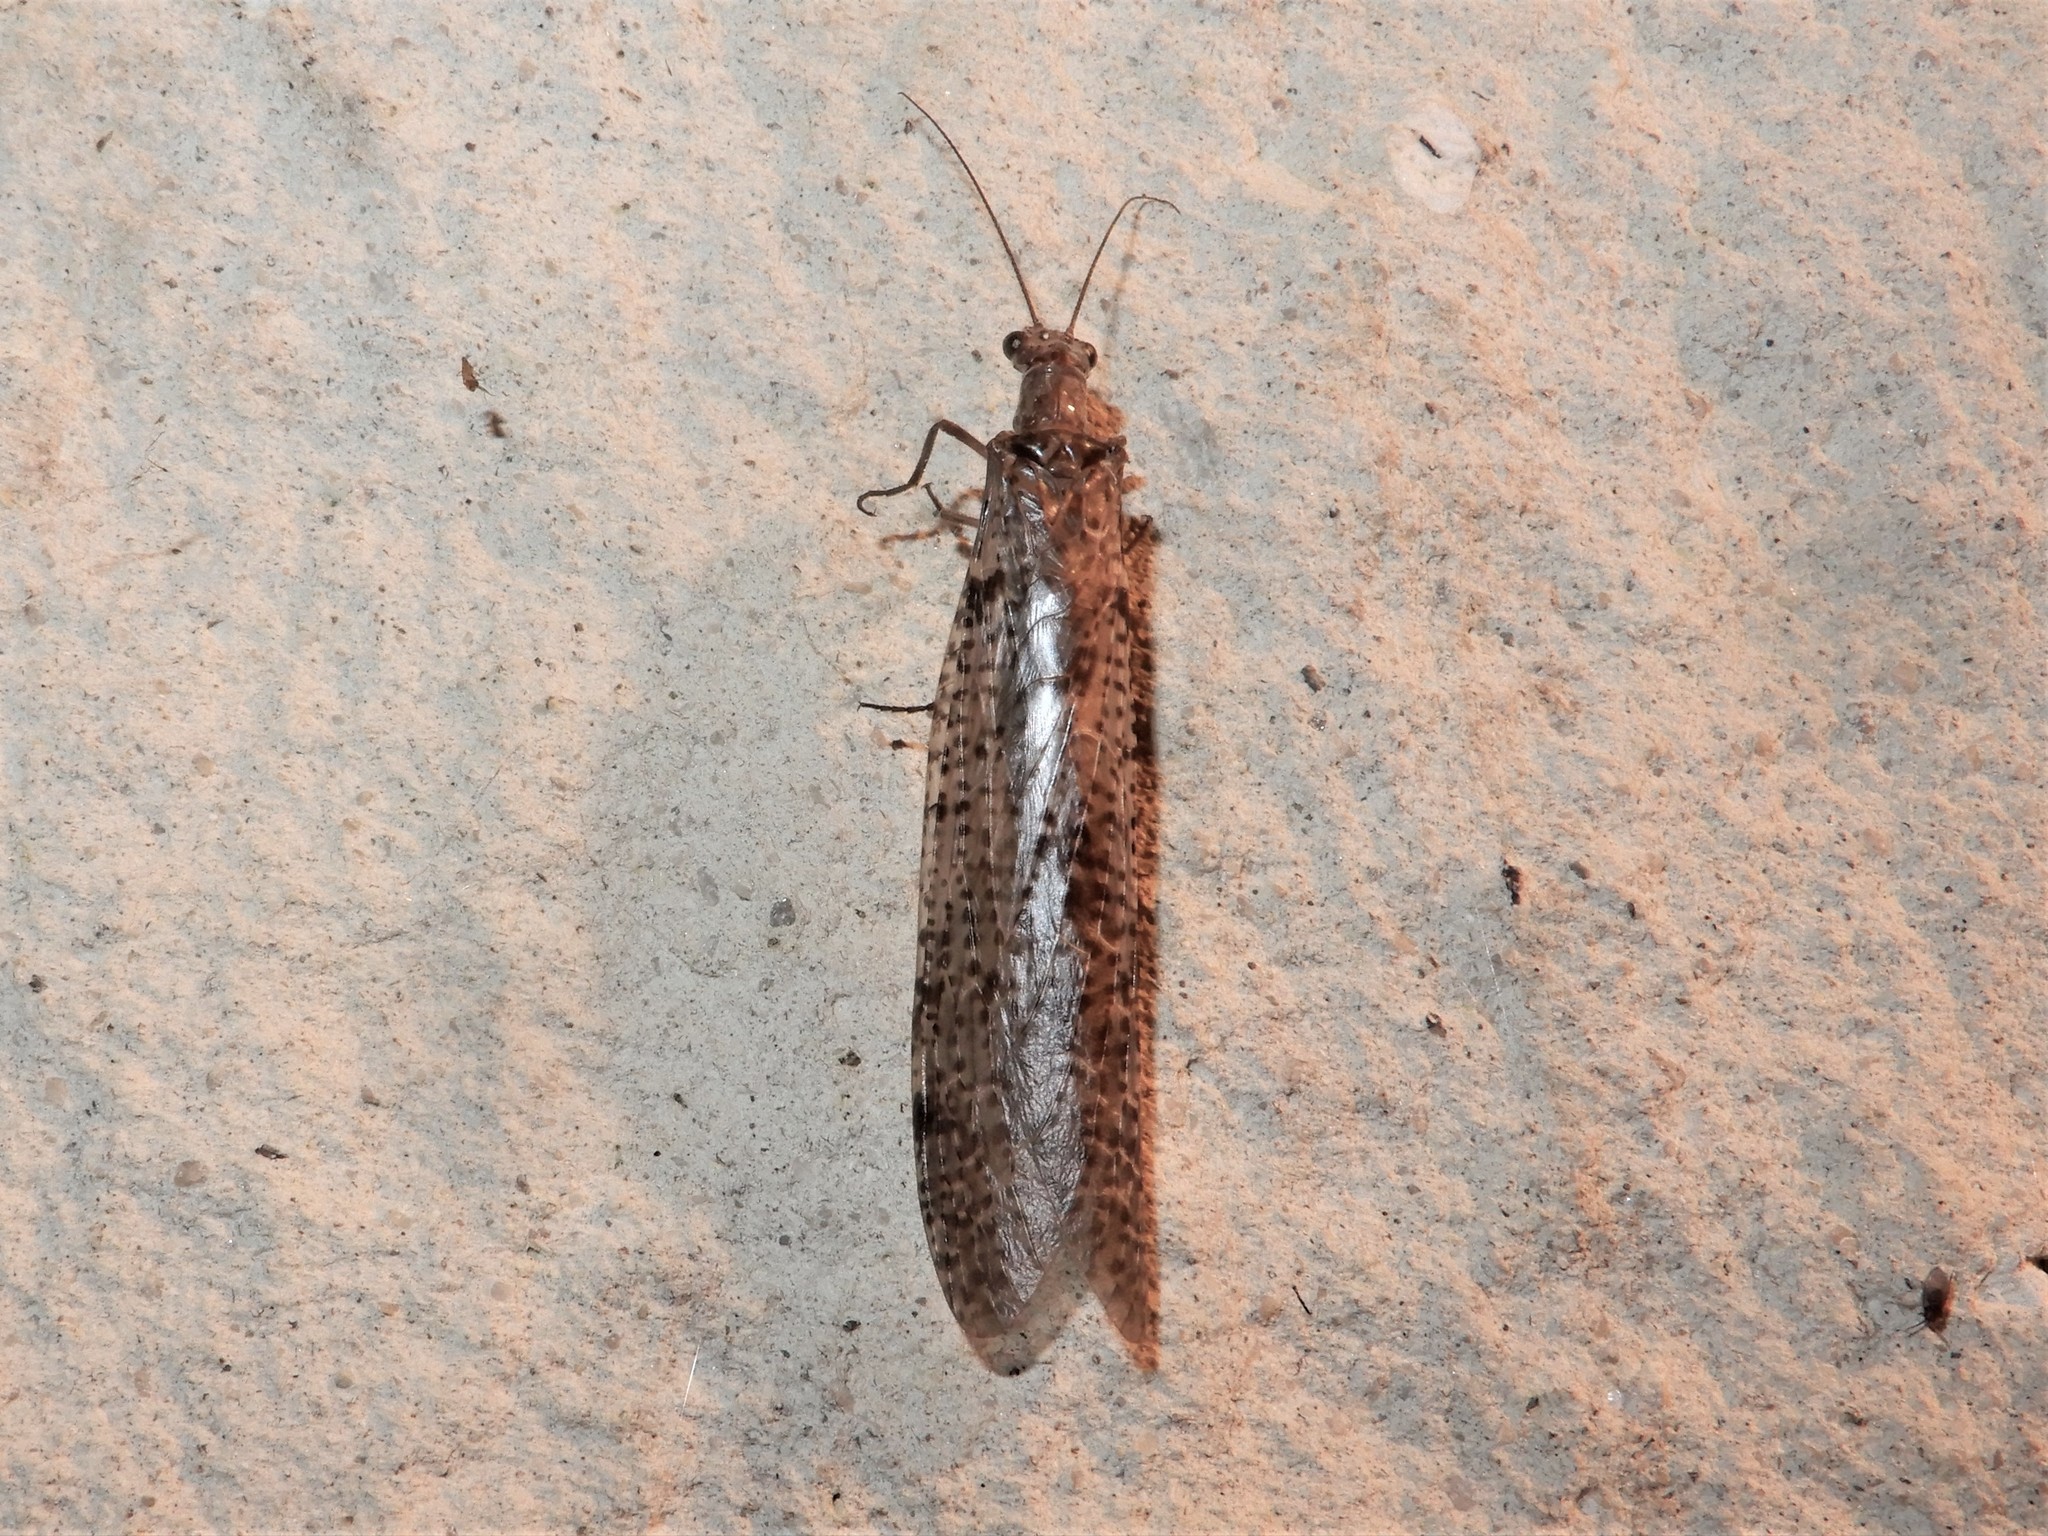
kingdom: Animalia
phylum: Arthropoda
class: Insecta
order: Megaloptera
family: Corydalidae
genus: Archichauliodes
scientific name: Archichauliodes diversus
